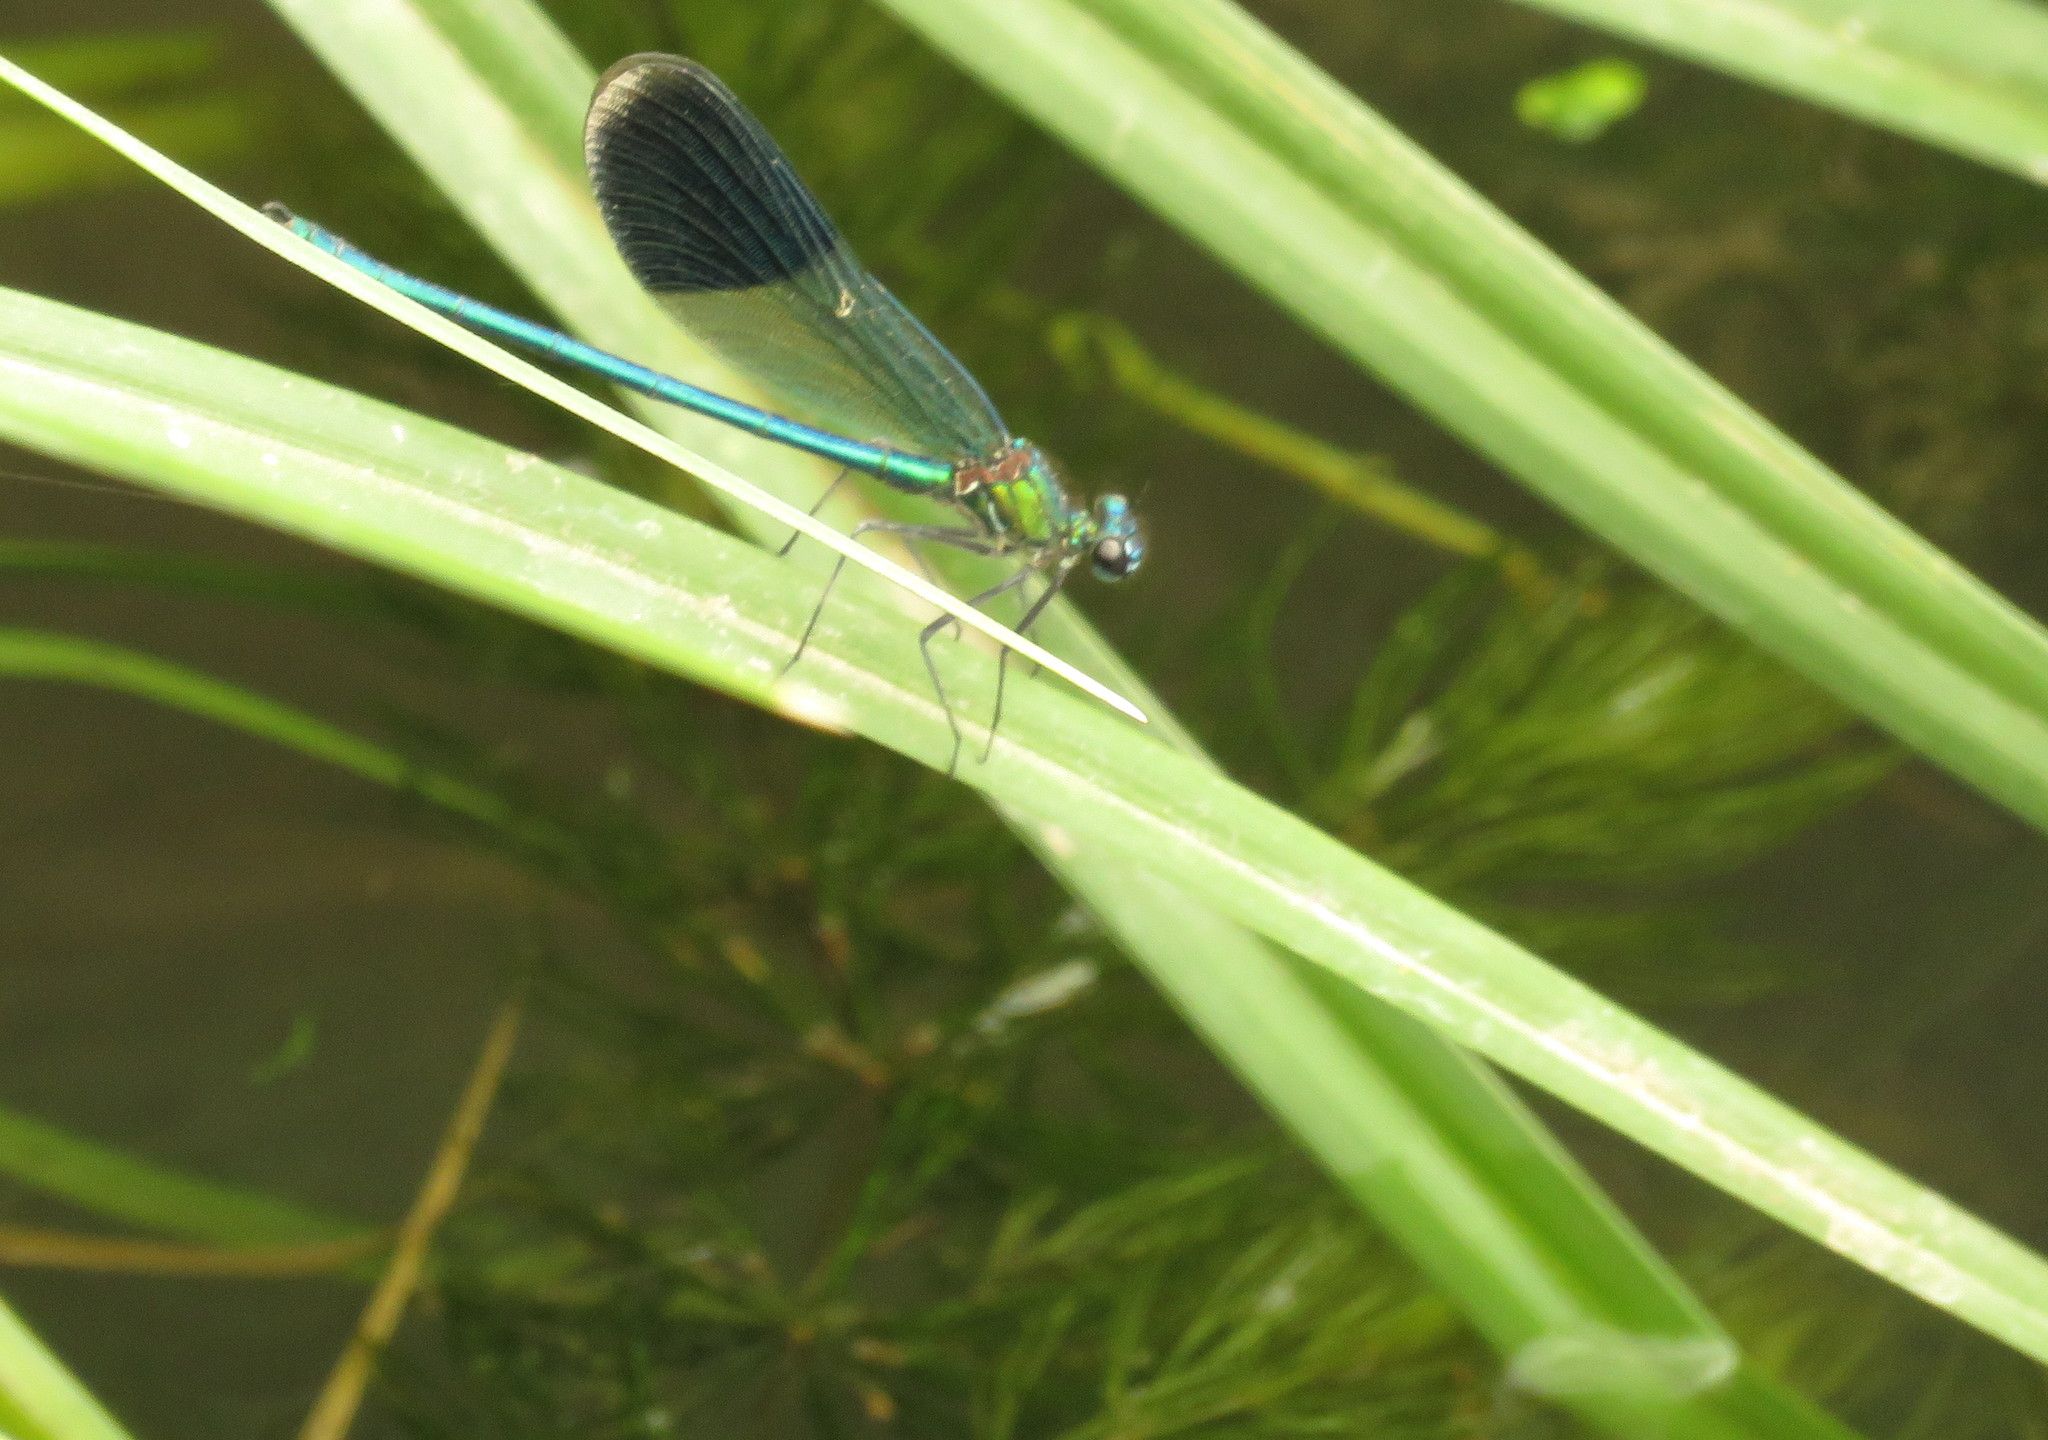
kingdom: Animalia
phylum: Arthropoda
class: Insecta
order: Odonata
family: Calopterygidae
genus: Calopteryx
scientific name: Calopteryx splendens
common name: Banded demoiselle
